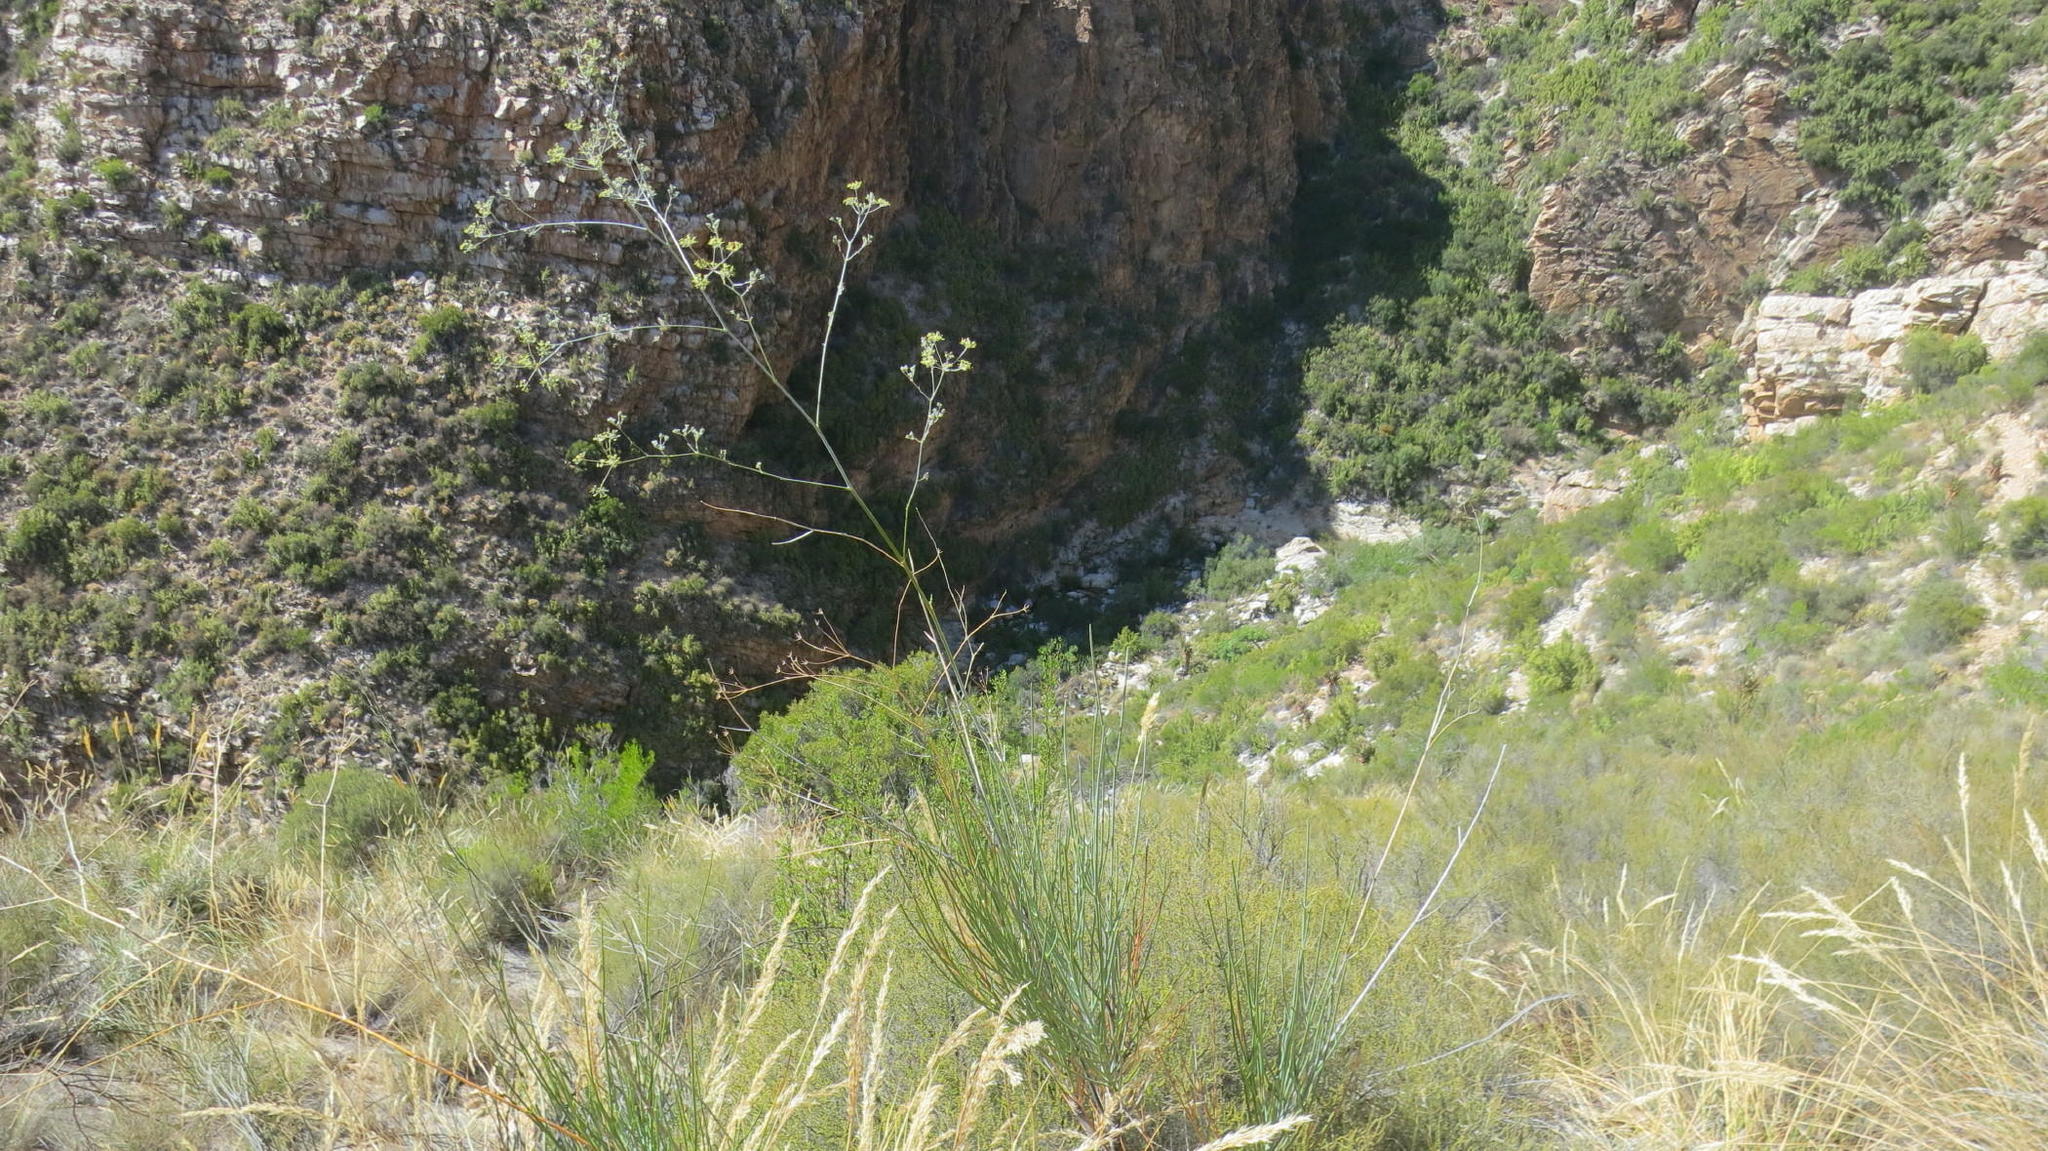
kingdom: Plantae
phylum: Tracheophyta
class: Magnoliopsida
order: Apiales
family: Apiaceae
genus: Anginon
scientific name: Anginon swellendamense
